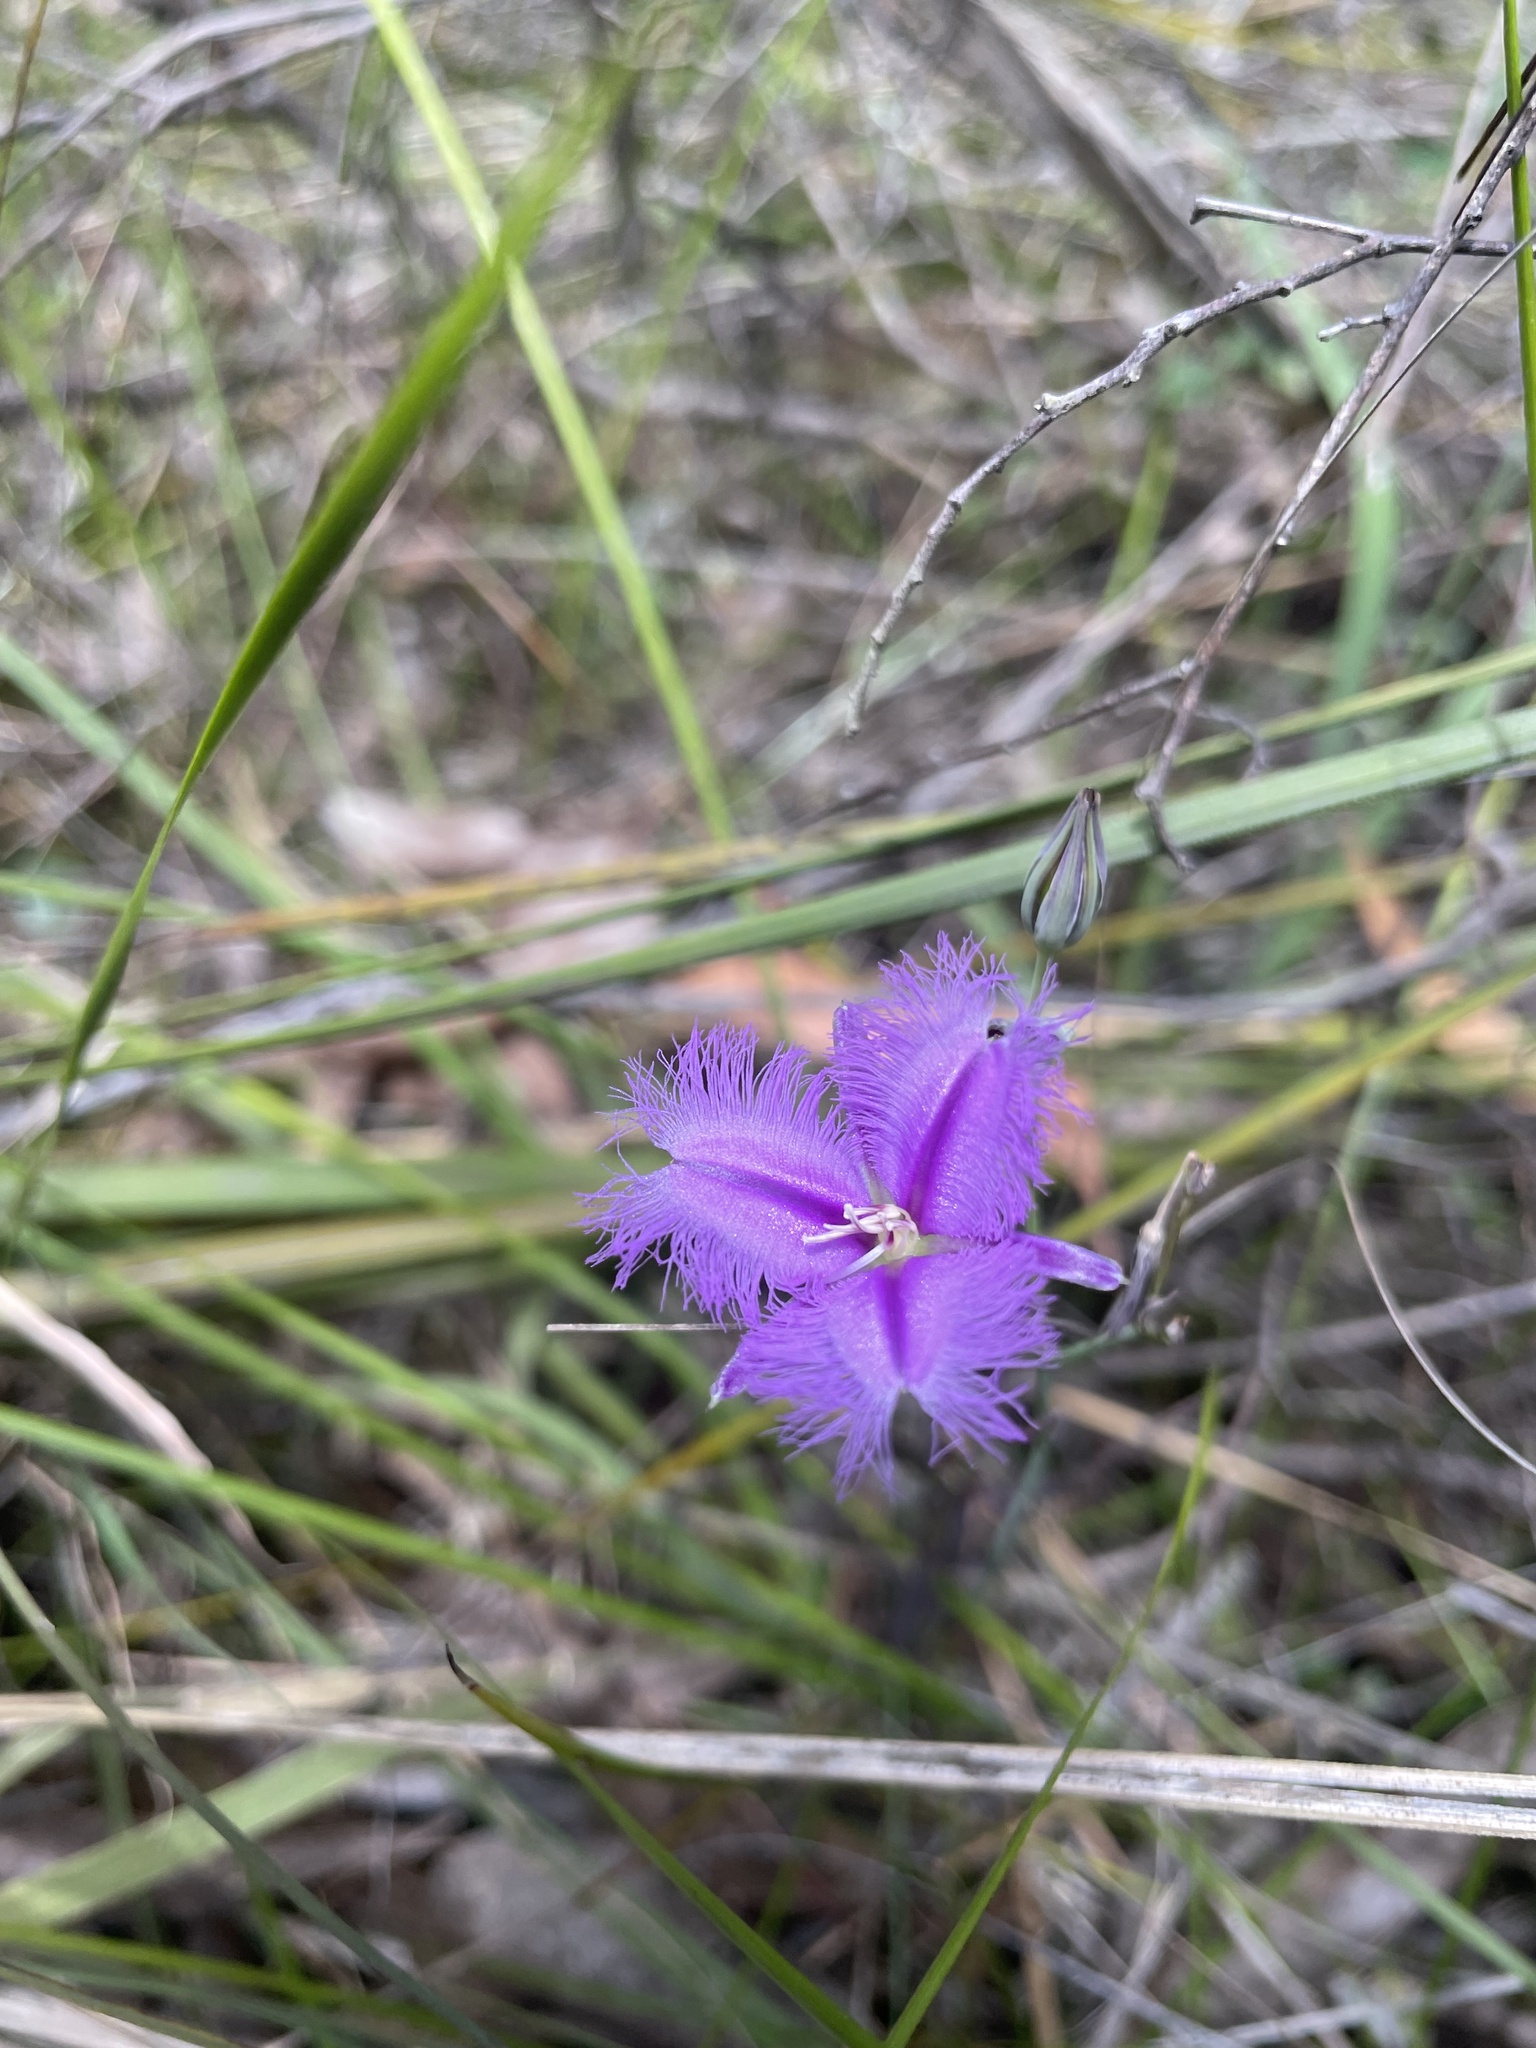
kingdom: Plantae
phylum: Tracheophyta
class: Liliopsida
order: Asparagales
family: Asparagaceae
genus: Thysanotus
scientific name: Thysanotus tuberosus
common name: Common fringed-lily
